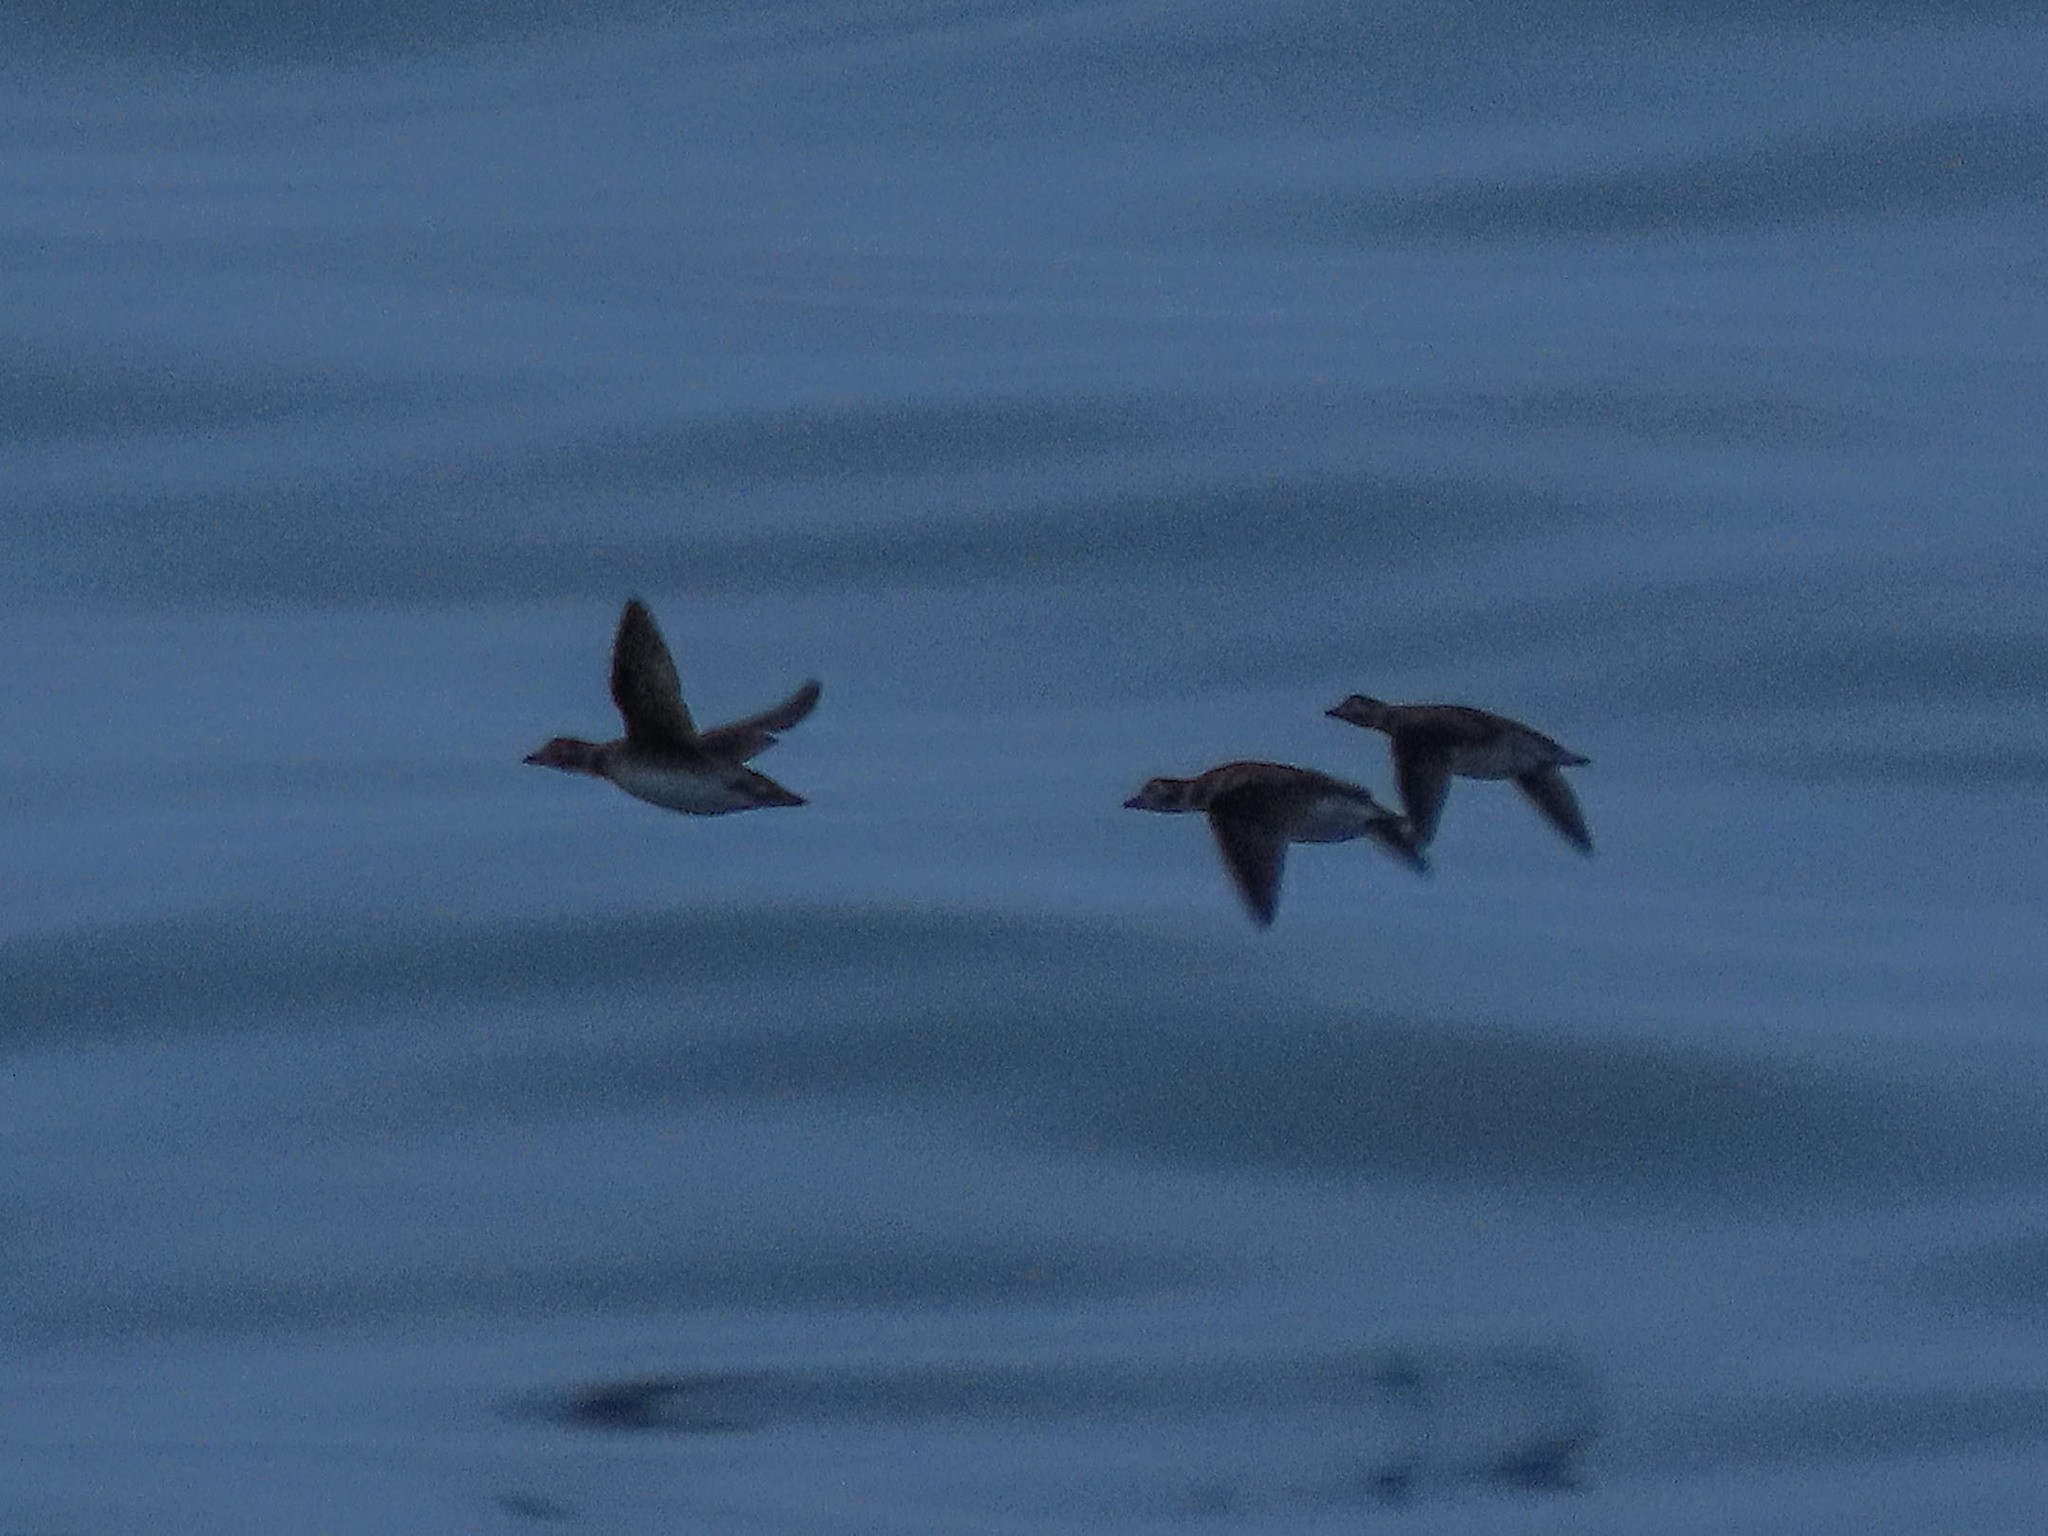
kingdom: Animalia
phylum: Chordata
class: Aves
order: Anseriformes
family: Anatidae
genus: Clangula
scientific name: Clangula hyemalis
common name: Long-tailed duck
